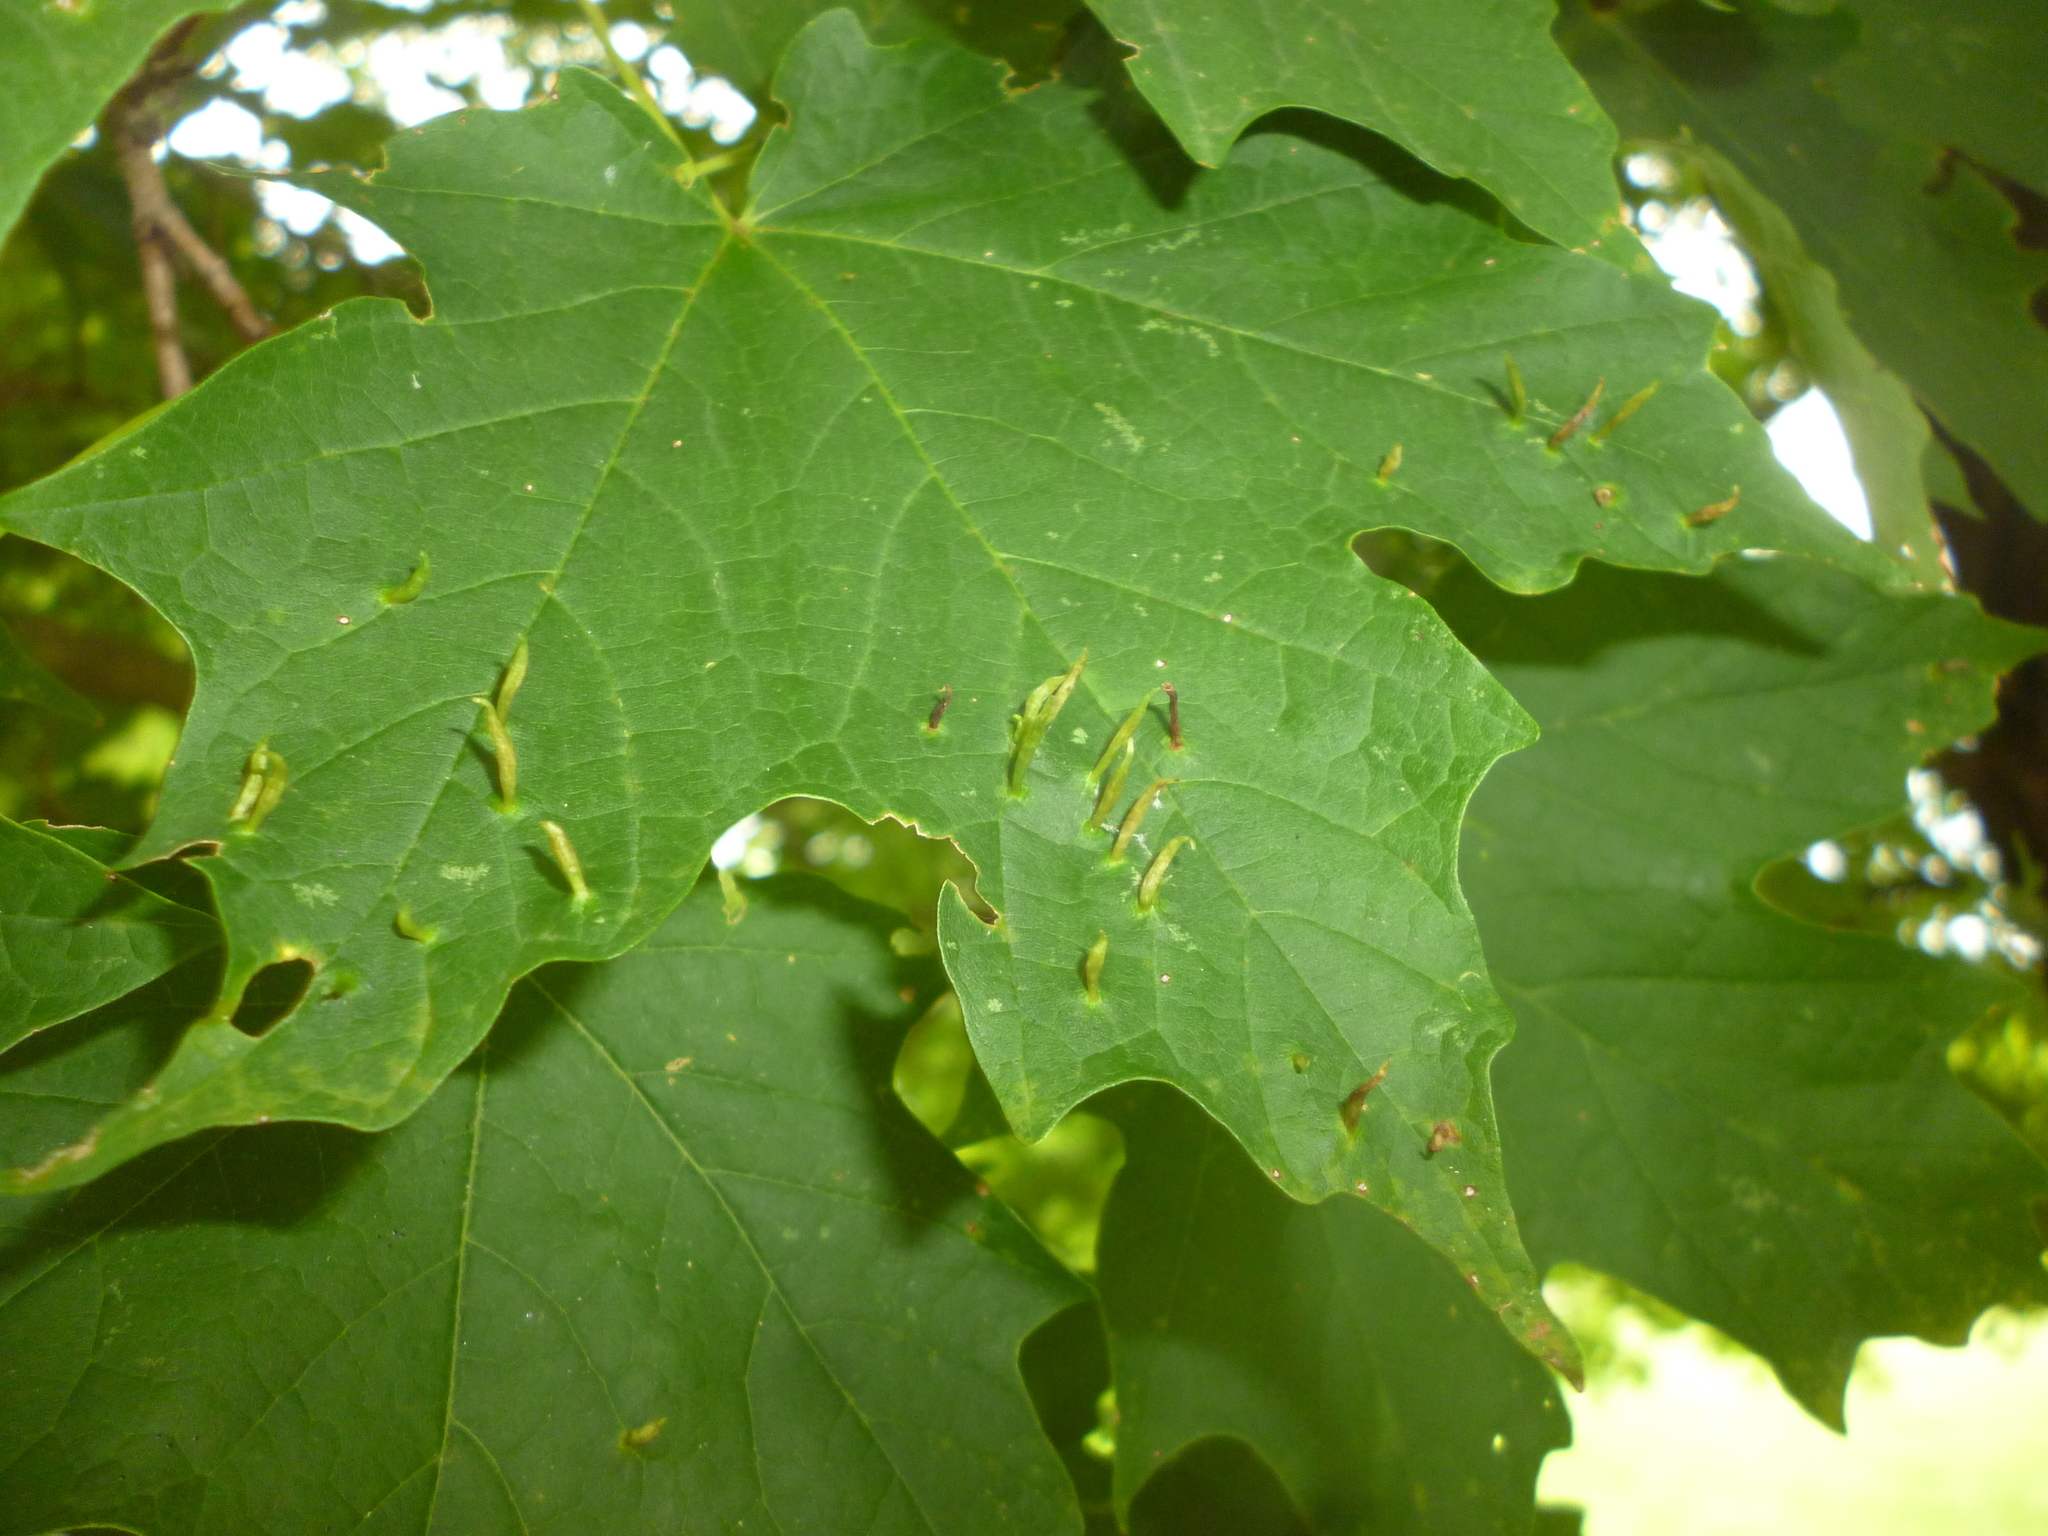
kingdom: Animalia
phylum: Arthropoda
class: Arachnida
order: Trombidiformes
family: Eriophyidae
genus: Vasates
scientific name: Vasates aceriscrumena
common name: Maple spindle gall mite
